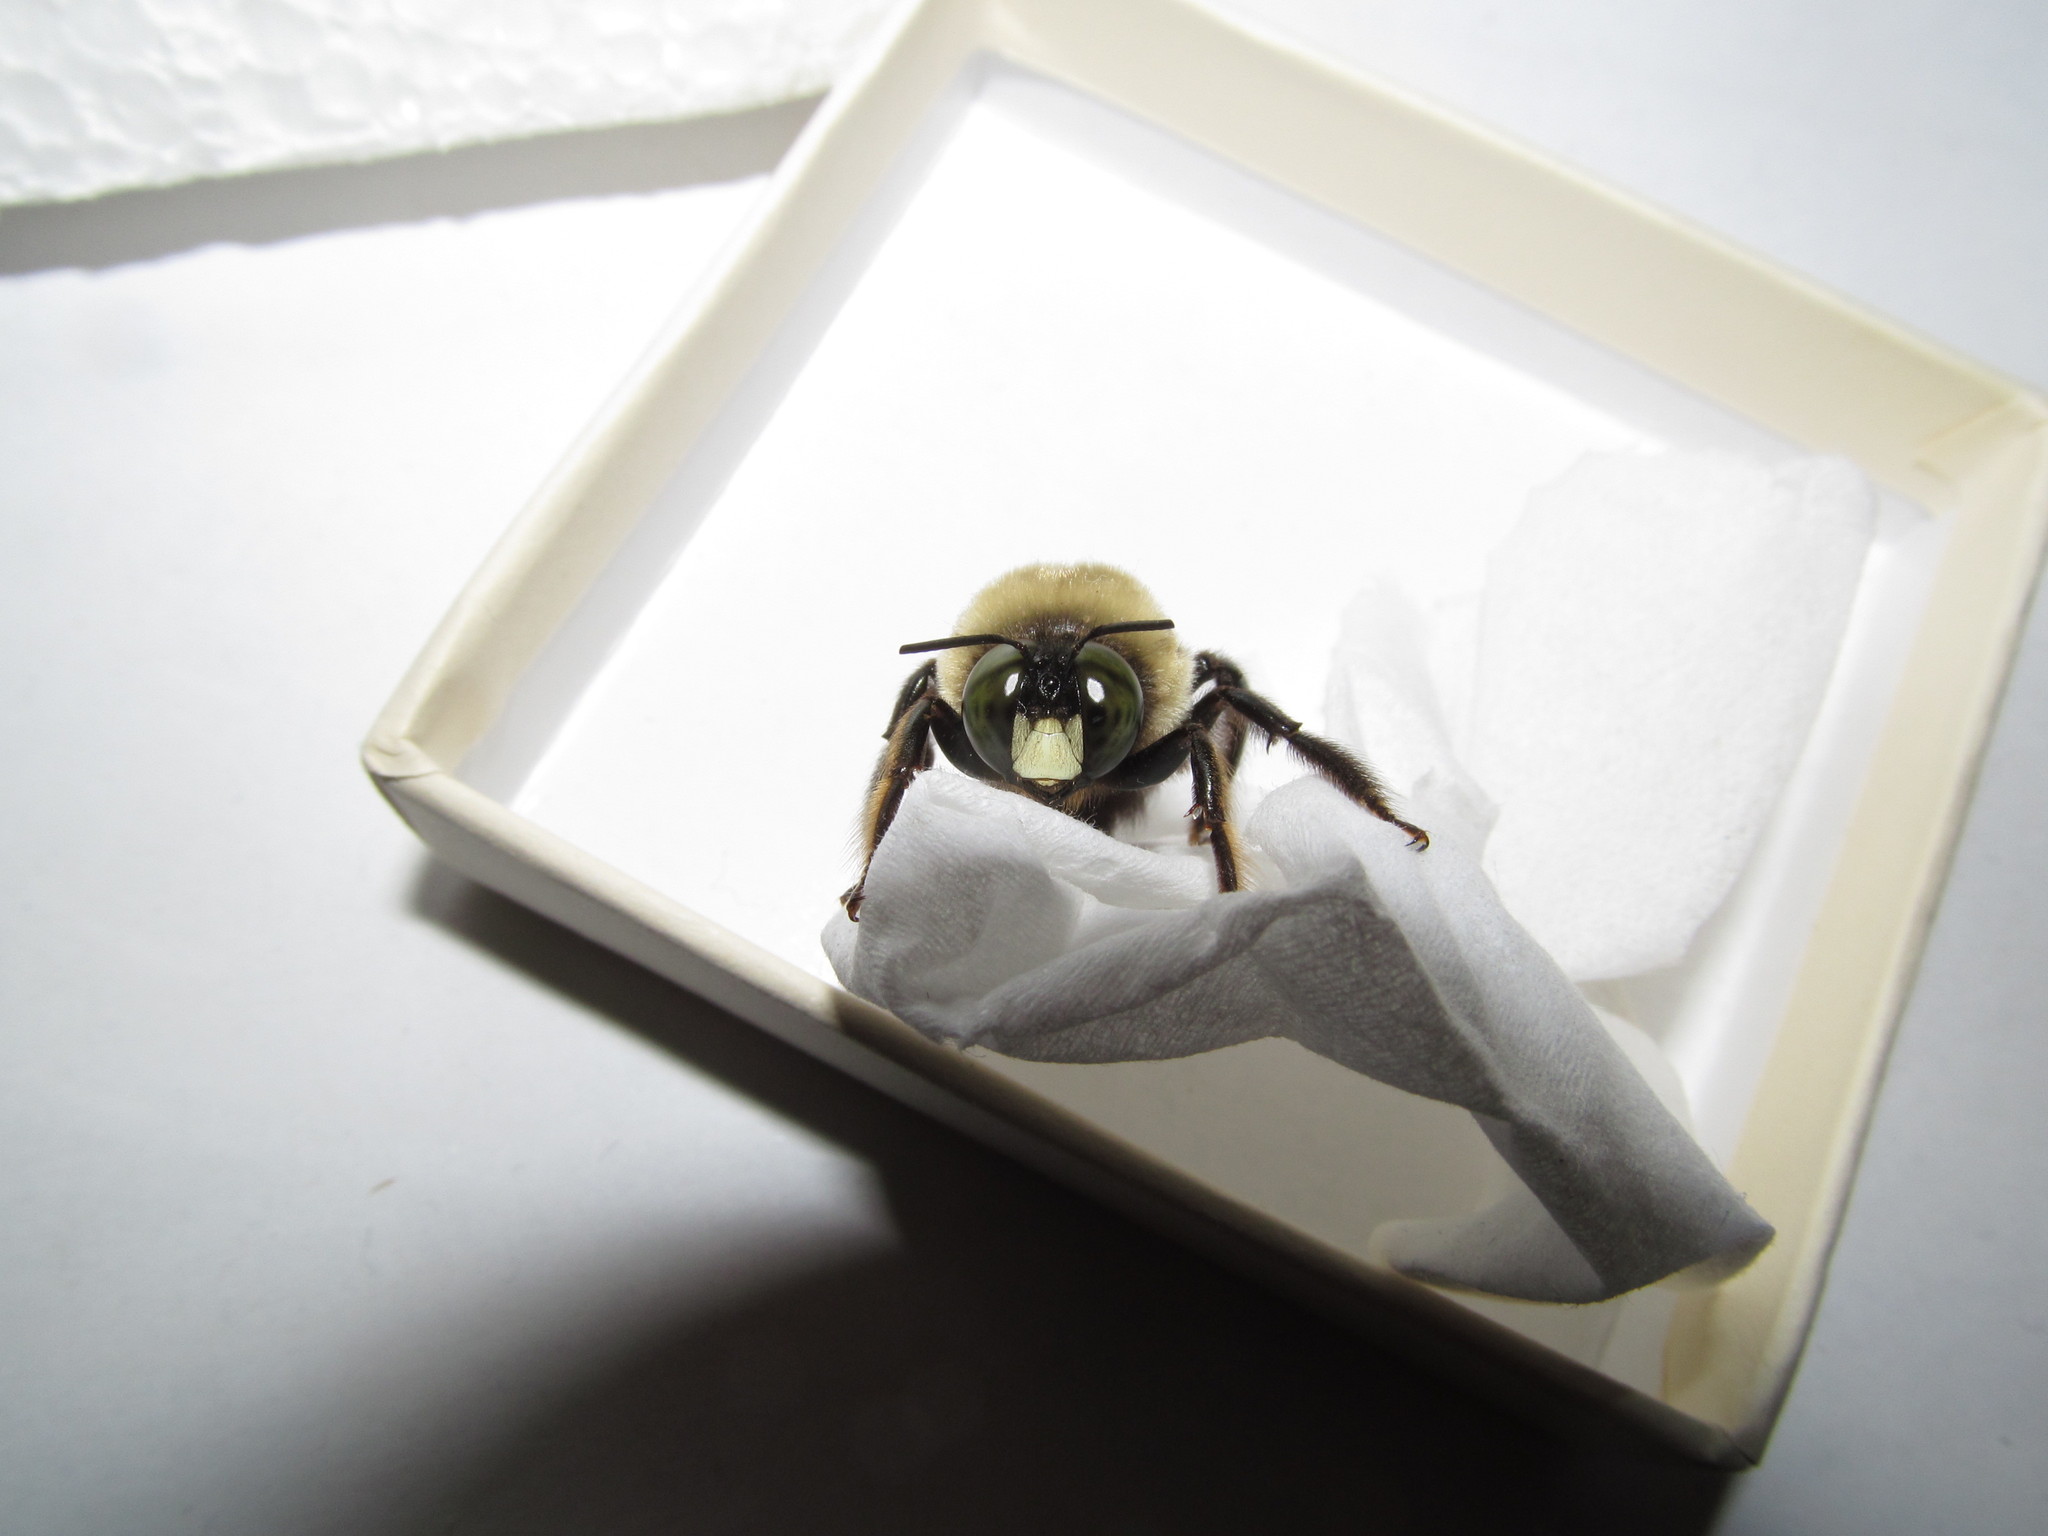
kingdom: Animalia
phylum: Arthropoda
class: Insecta
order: Hymenoptera
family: Apidae
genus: Xylocopa
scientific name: Xylocopa virginica
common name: Carpenter bee
